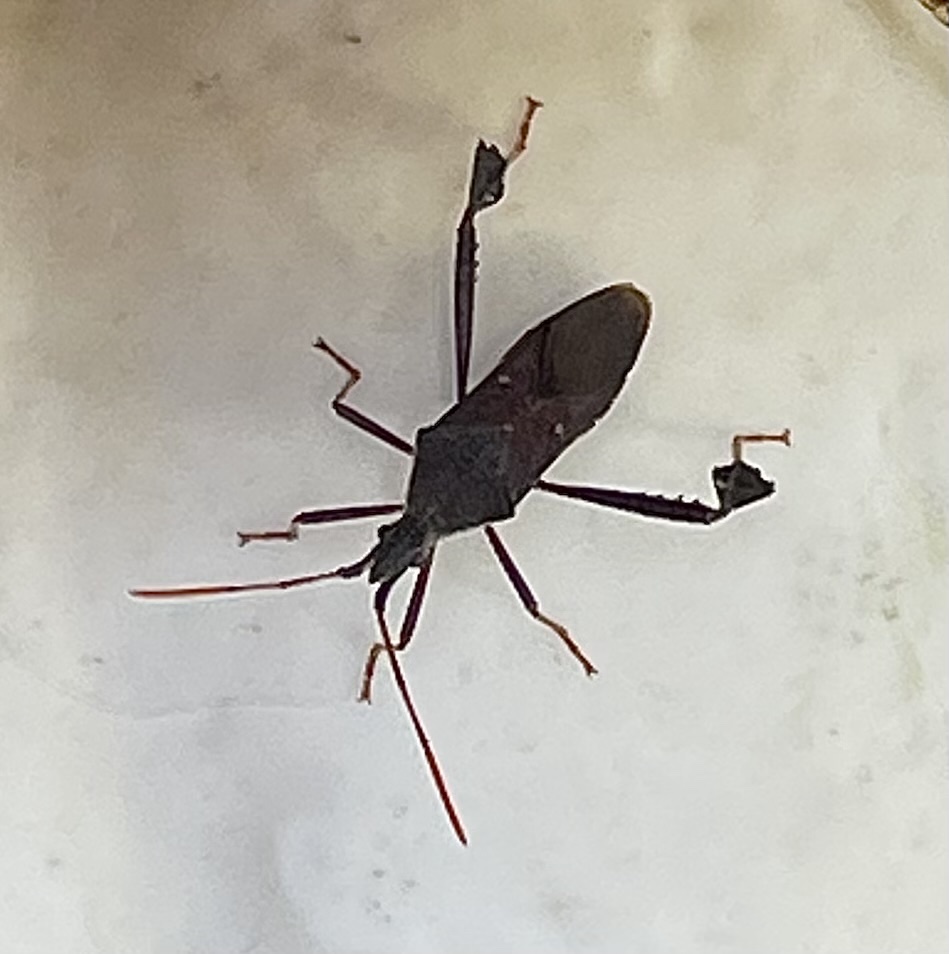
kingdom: Animalia
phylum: Arthropoda
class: Insecta
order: Hemiptera
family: Coreidae
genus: Leptoglossus
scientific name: Leptoglossus oppositus
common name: Northern leaf-footed bug
